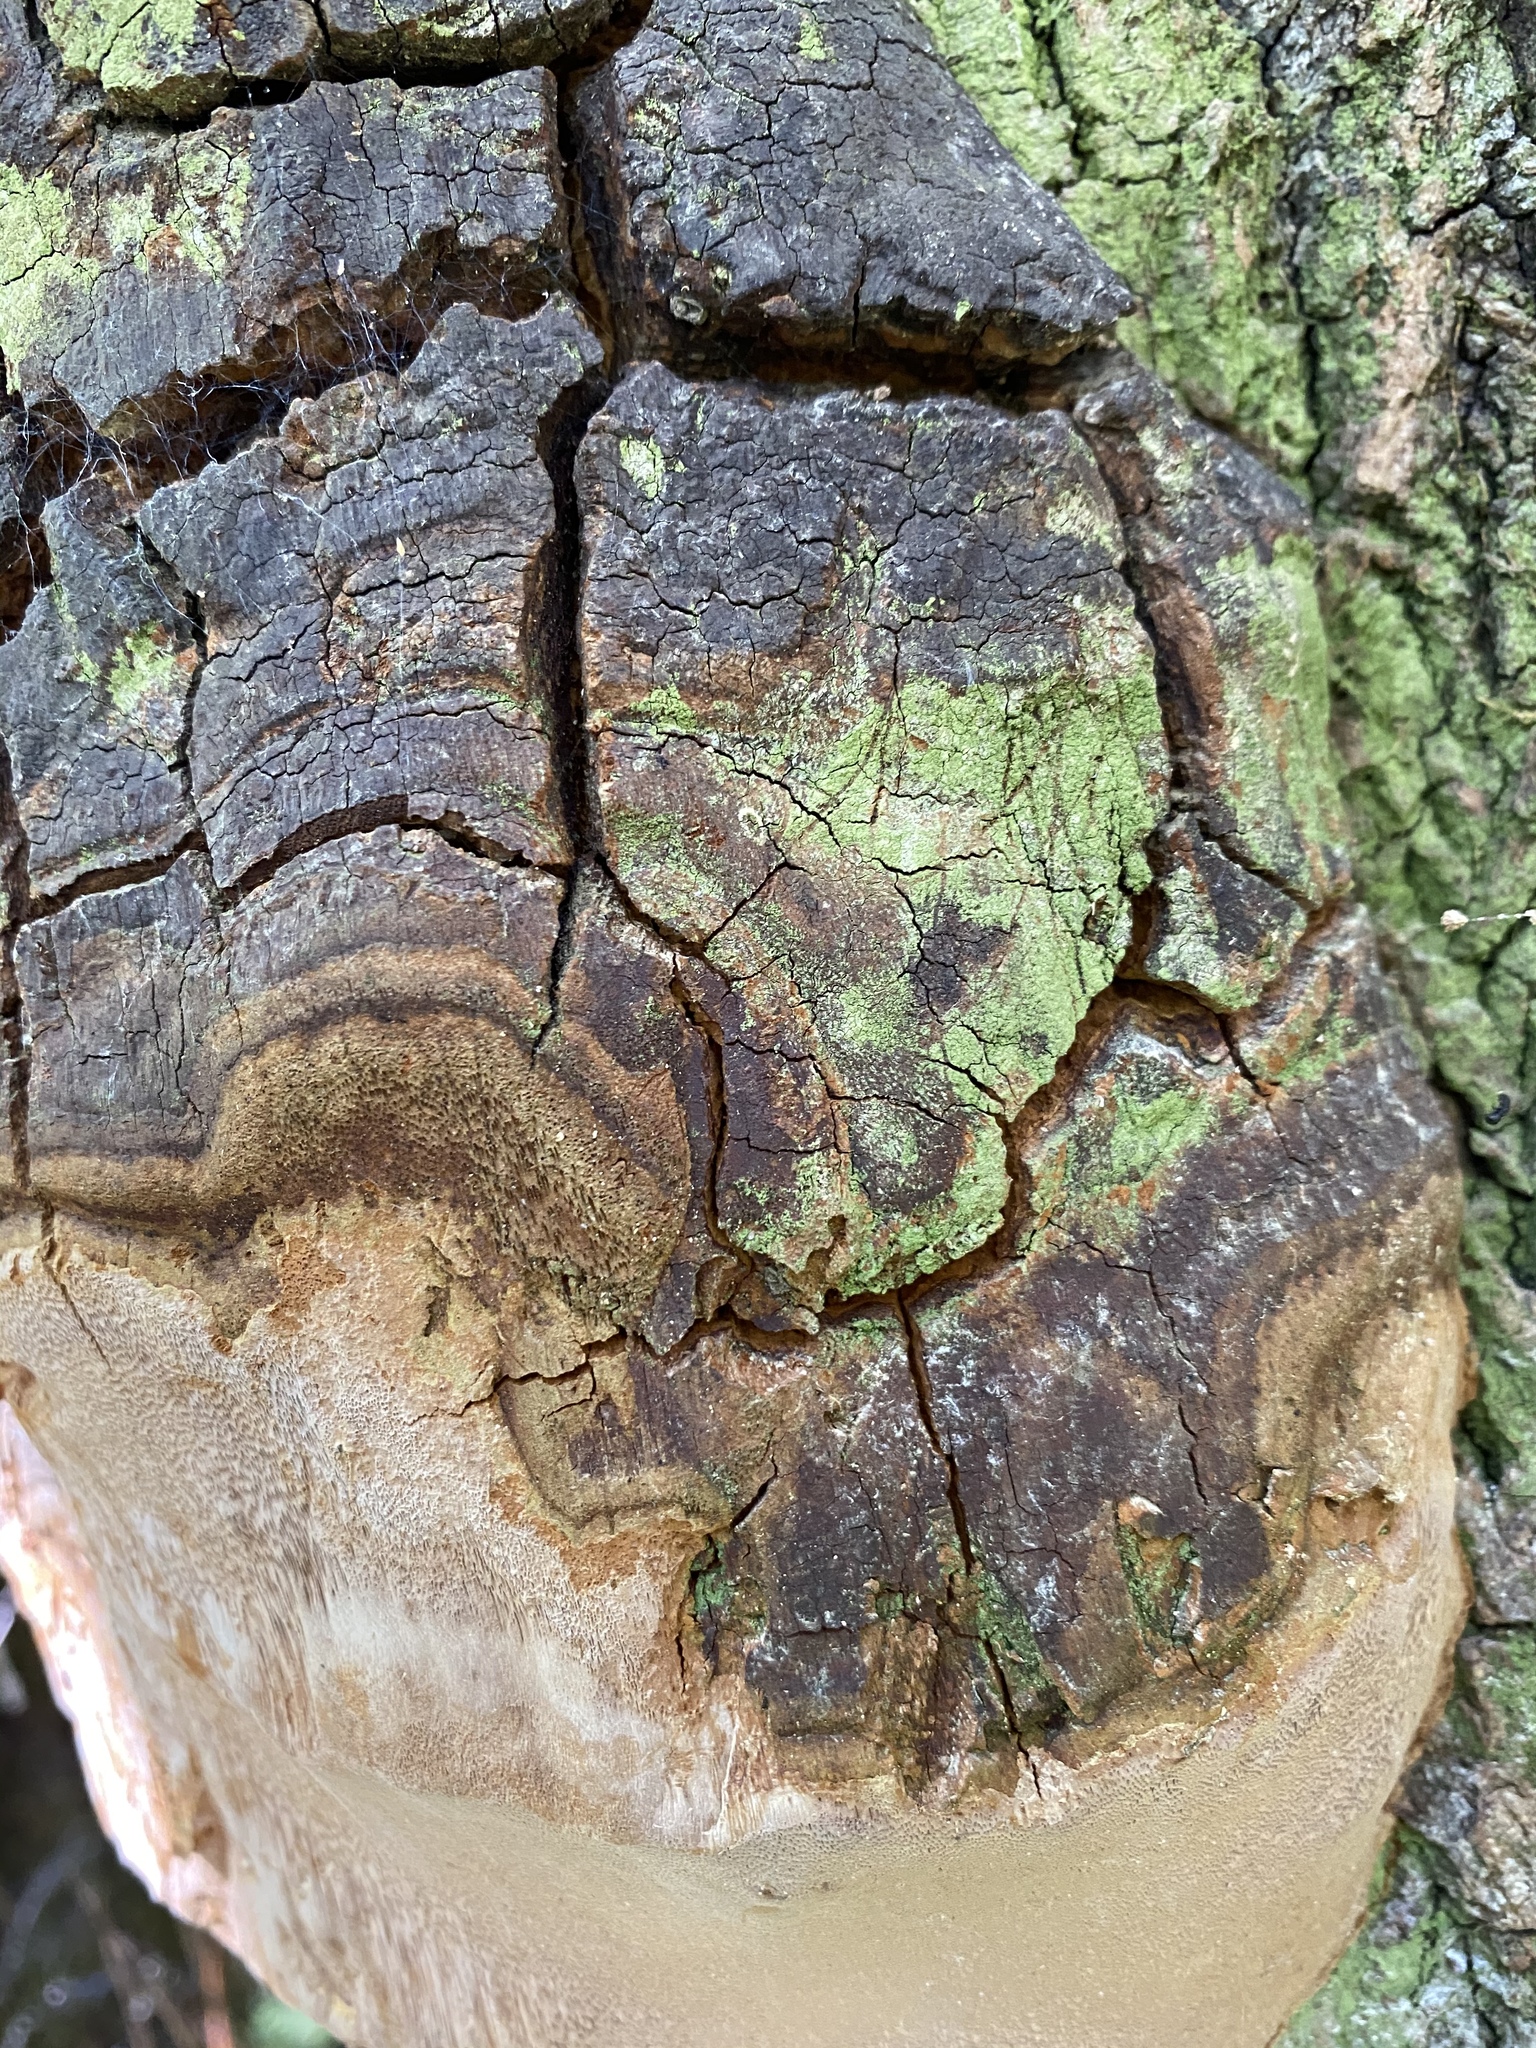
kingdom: Fungi
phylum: Basidiomycota
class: Agaricomycetes
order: Hymenochaetales
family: Hymenochaetaceae
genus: Fomitiporia
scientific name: Fomitiporia fissurata
